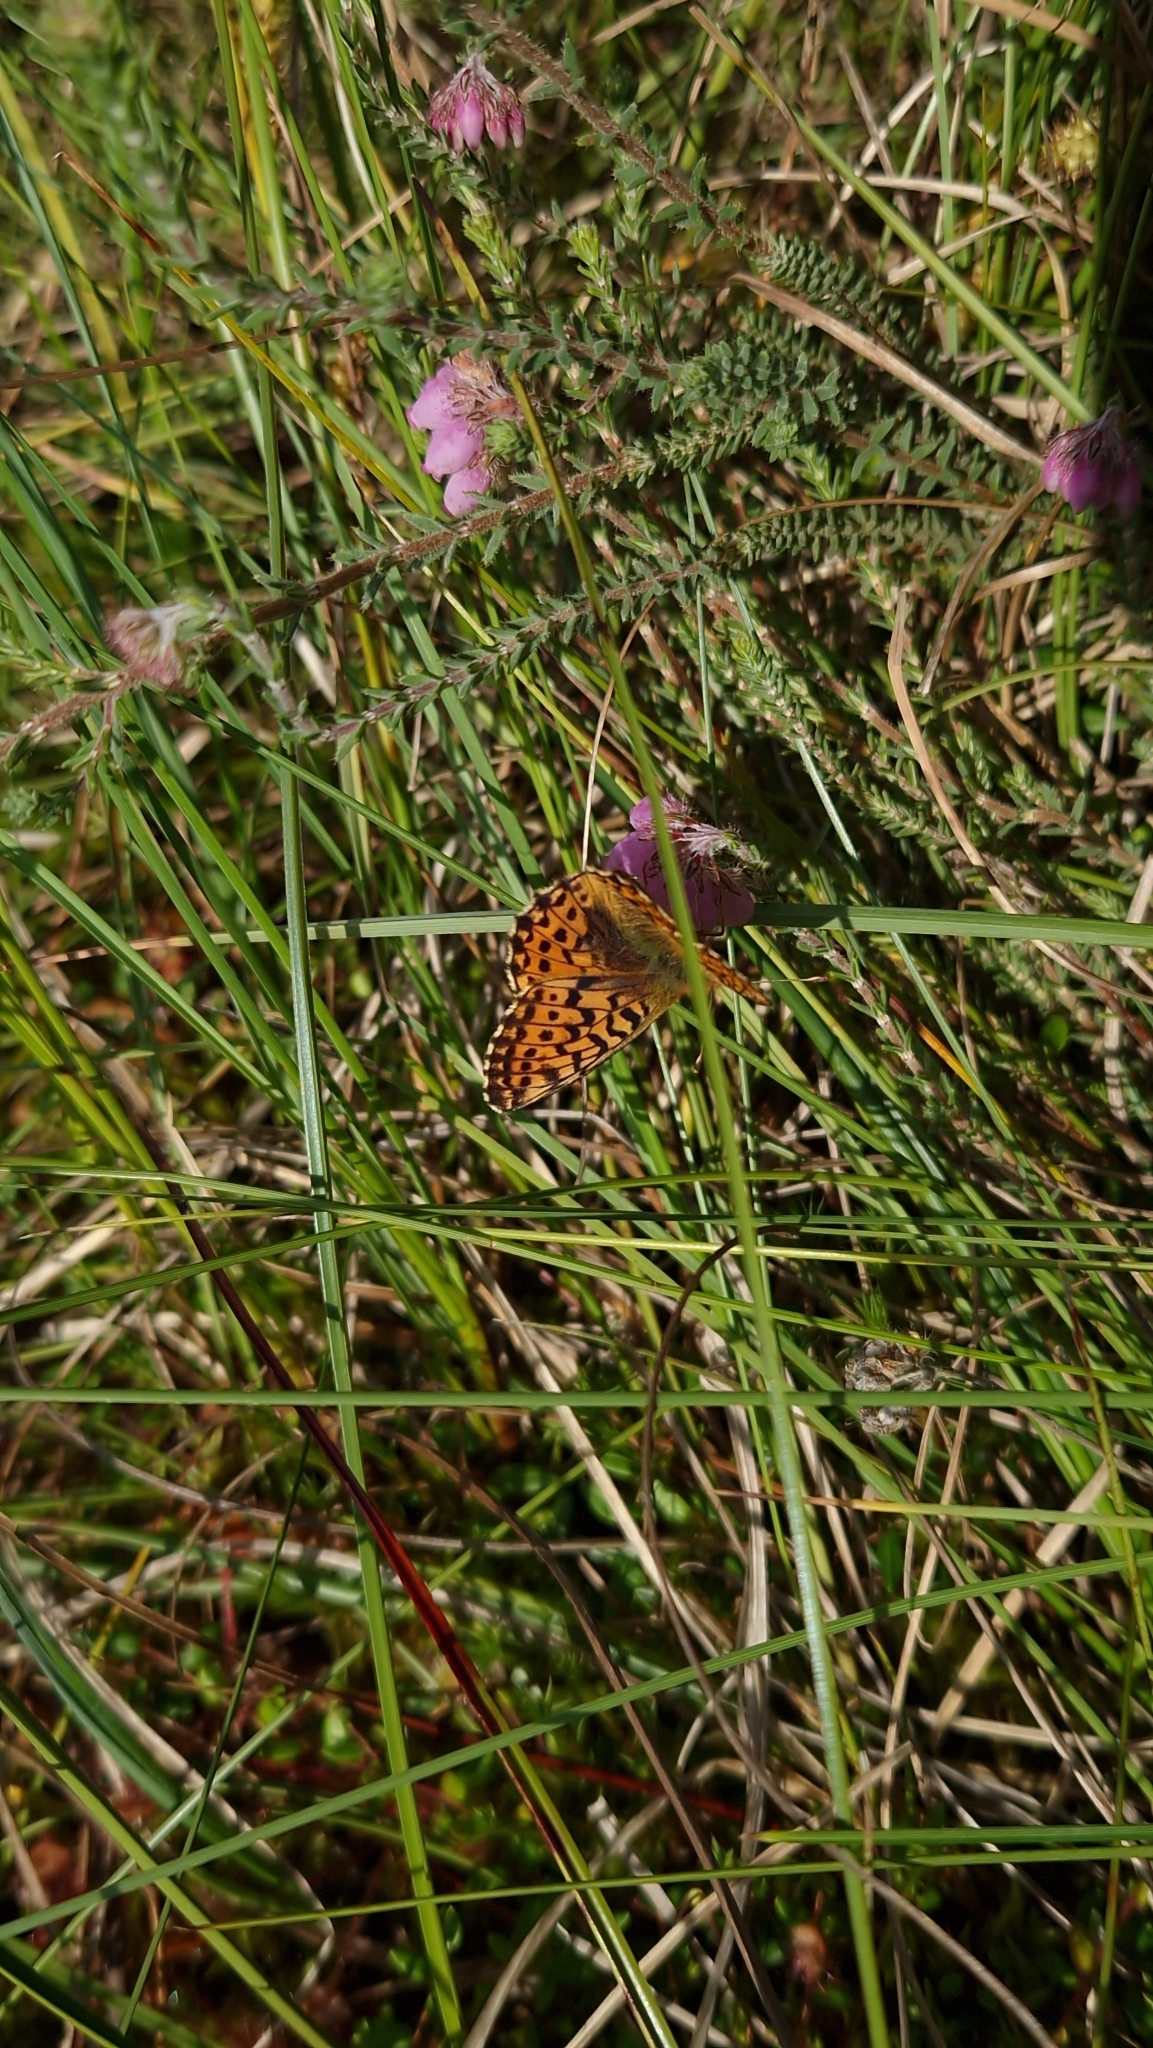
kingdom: Animalia
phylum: Arthropoda
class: Insecta
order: Lepidoptera
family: Nymphalidae
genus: Boloria
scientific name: Boloria aquilonaris
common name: Cranberry fritillary
